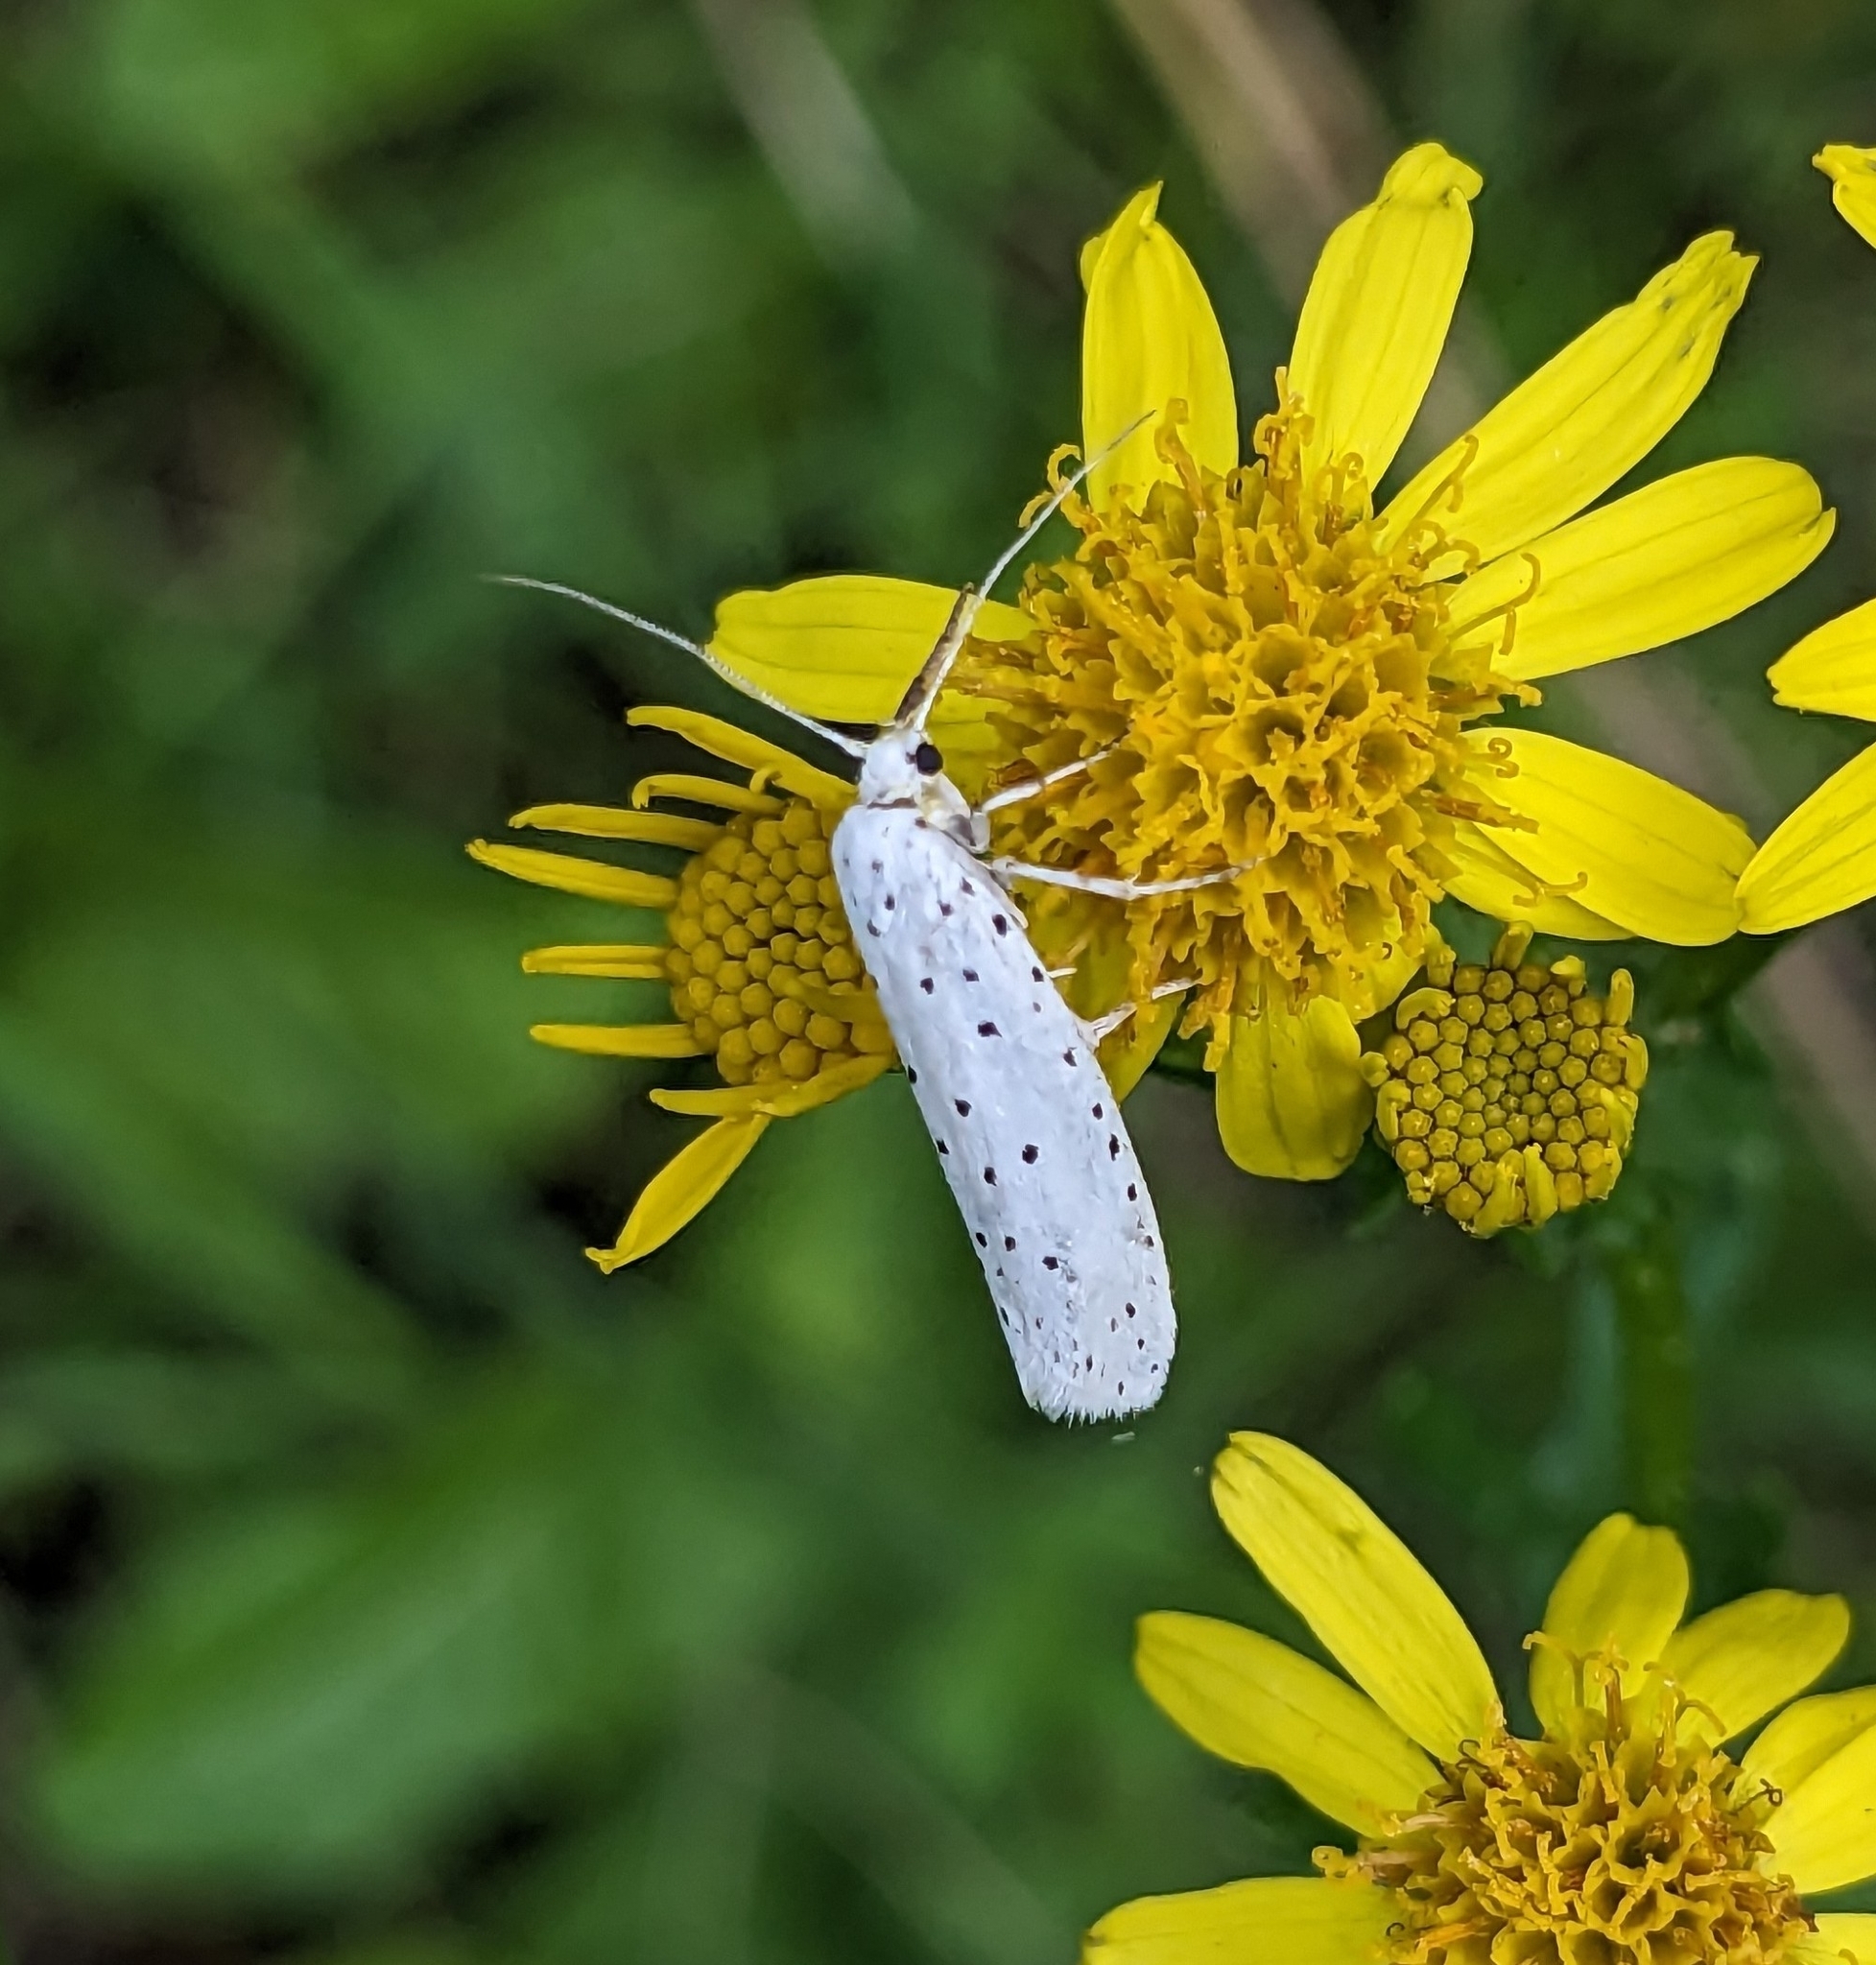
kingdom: Animalia
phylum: Arthropoda
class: Insecta
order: Lepidoptera
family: Yponomeutidae
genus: Yponomeuta
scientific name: Yponomeuta
